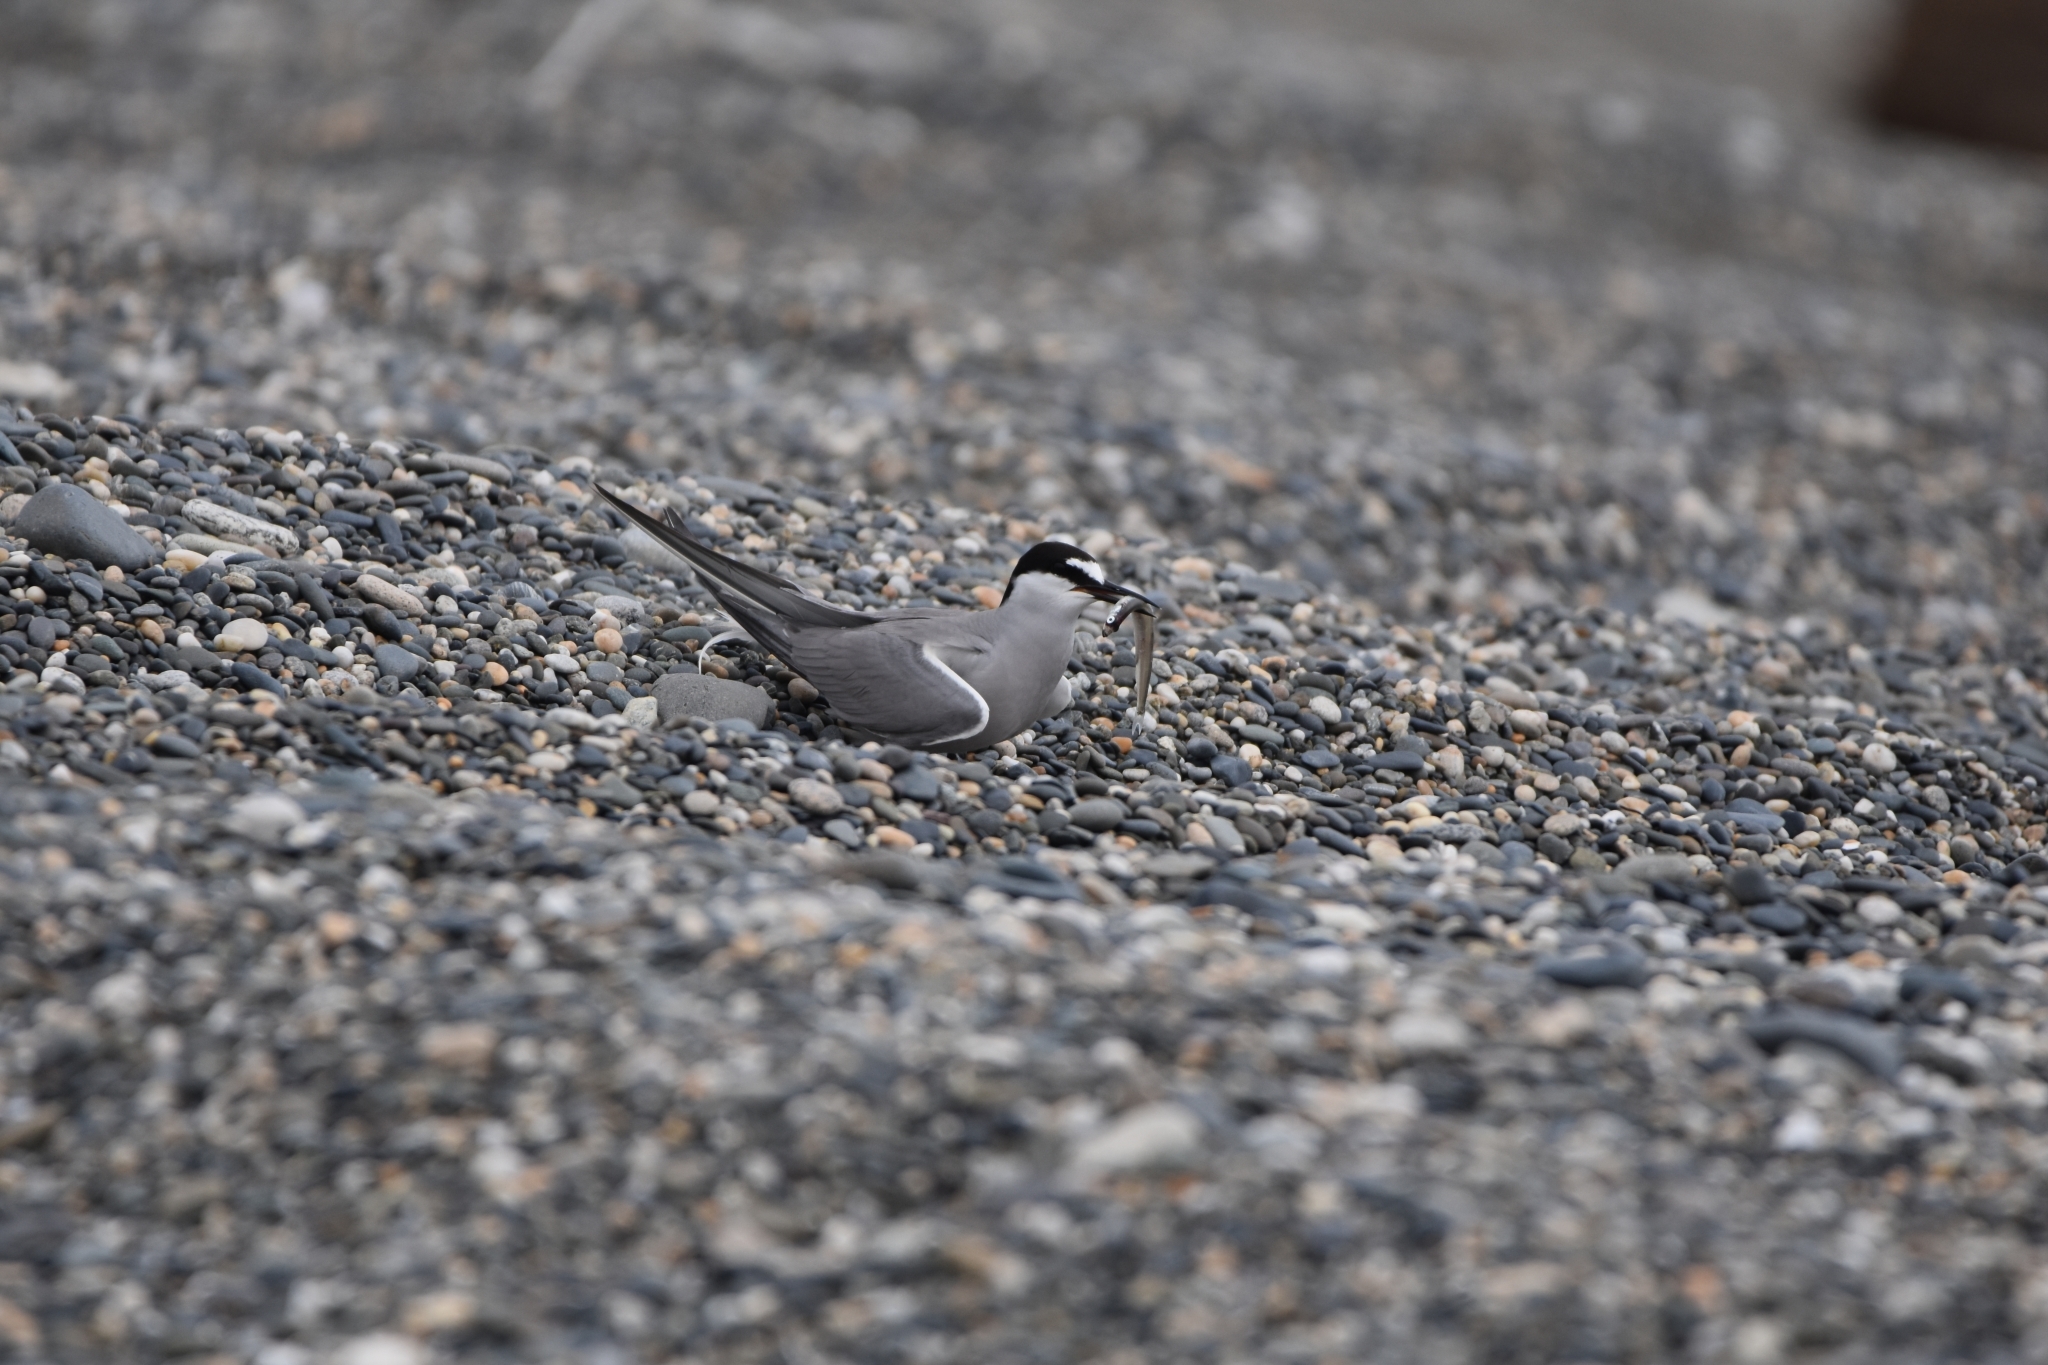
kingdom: Animalia
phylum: Chordata
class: Aves
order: Charadriiformes
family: Laridae
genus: Onychoprion
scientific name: Onychoprion aleuticus
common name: Aleutian tern
